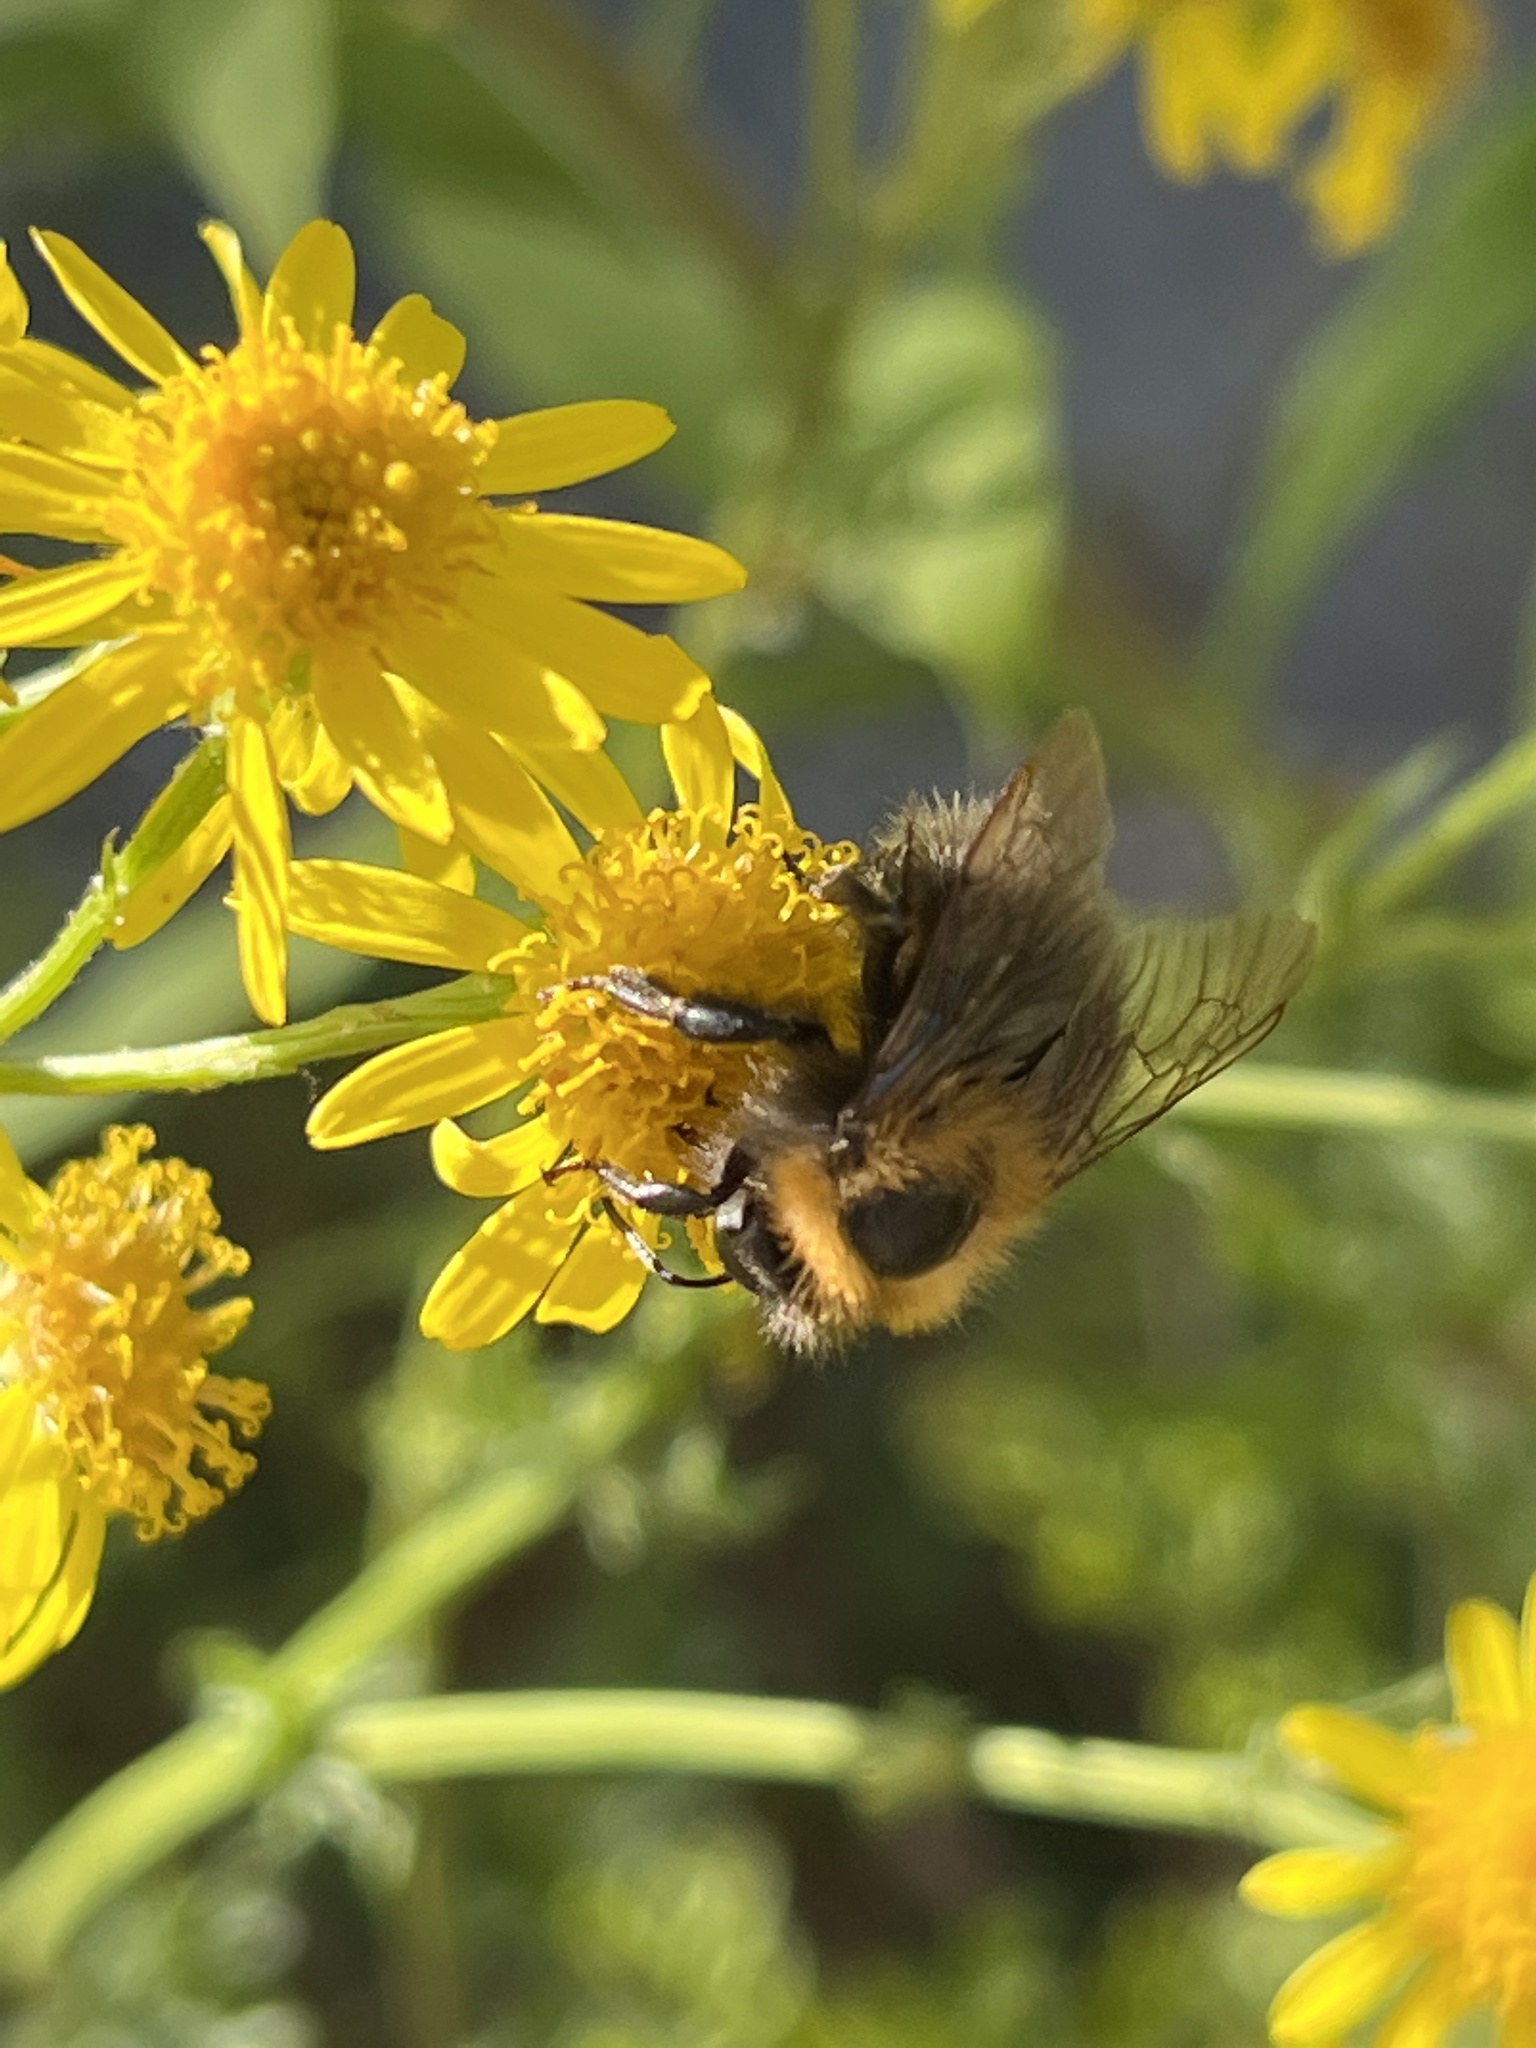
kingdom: Animalia
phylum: Arthropoda
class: Insecta
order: Hymenoptera
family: Apidae
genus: Bombus
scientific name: Bombus hypnorum
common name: New garden bumblebee
